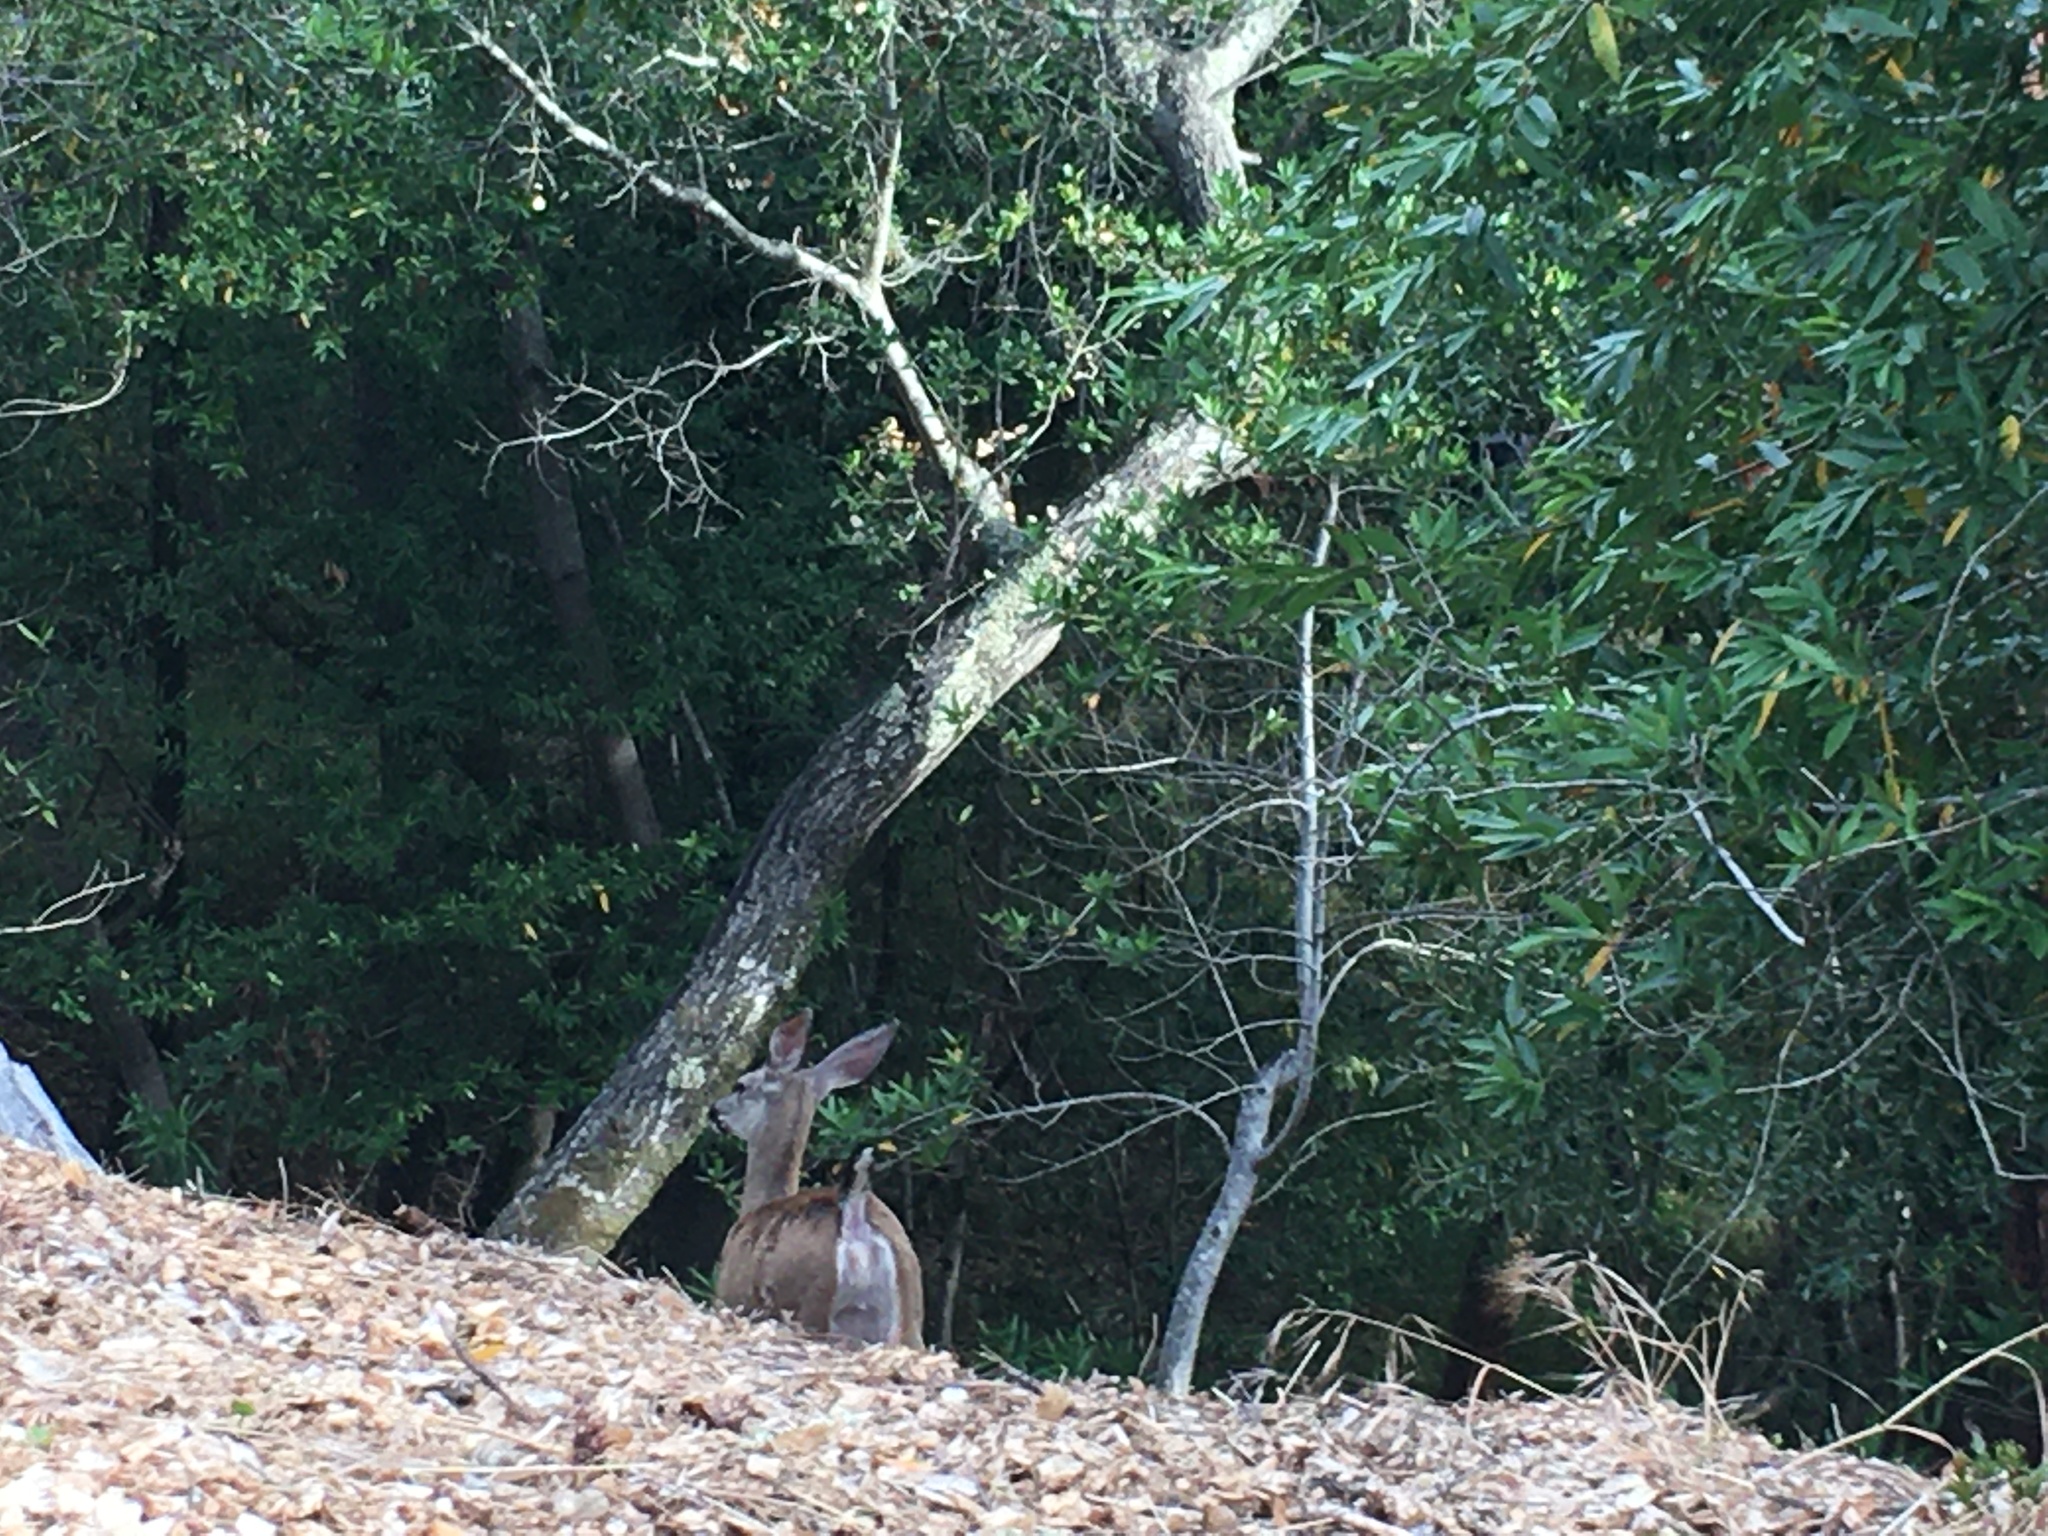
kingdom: Animalia
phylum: Chordata
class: Mammalia
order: Artiodactyla
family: Cervidae
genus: Odocoileus
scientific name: Odocoileus hemionus
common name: Mule deer
